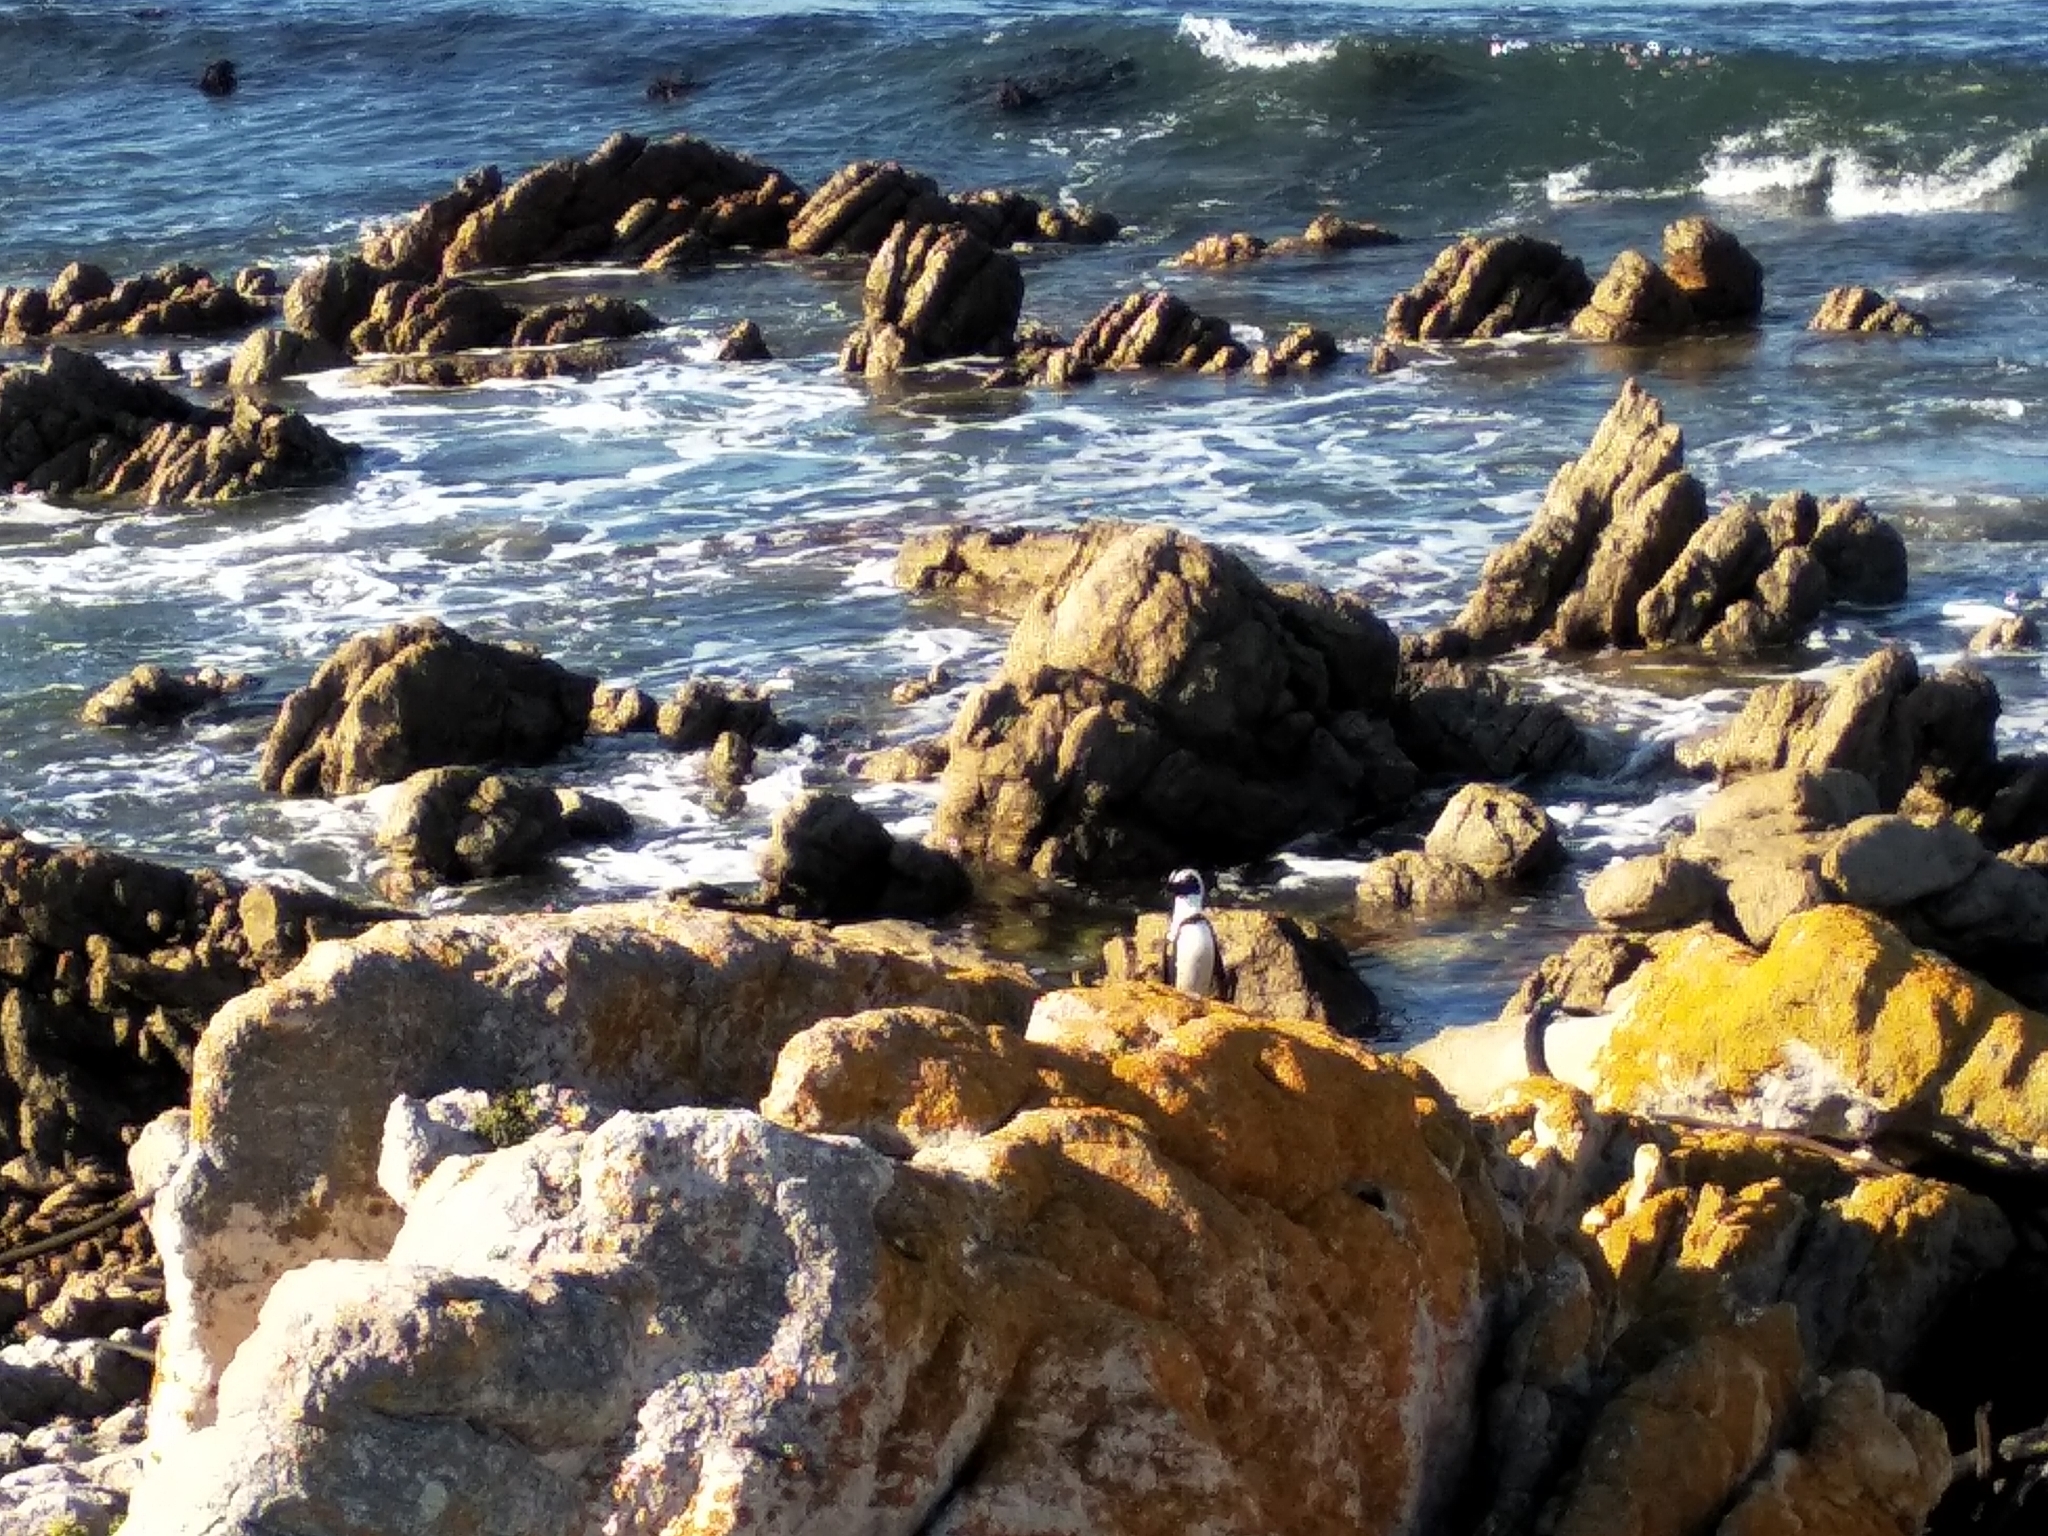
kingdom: Animalia
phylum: Chordata
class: Aves
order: Sphenisciformes
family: Spheniscidae
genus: Spheniscus
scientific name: Spheniscus demersus
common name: African penguin
